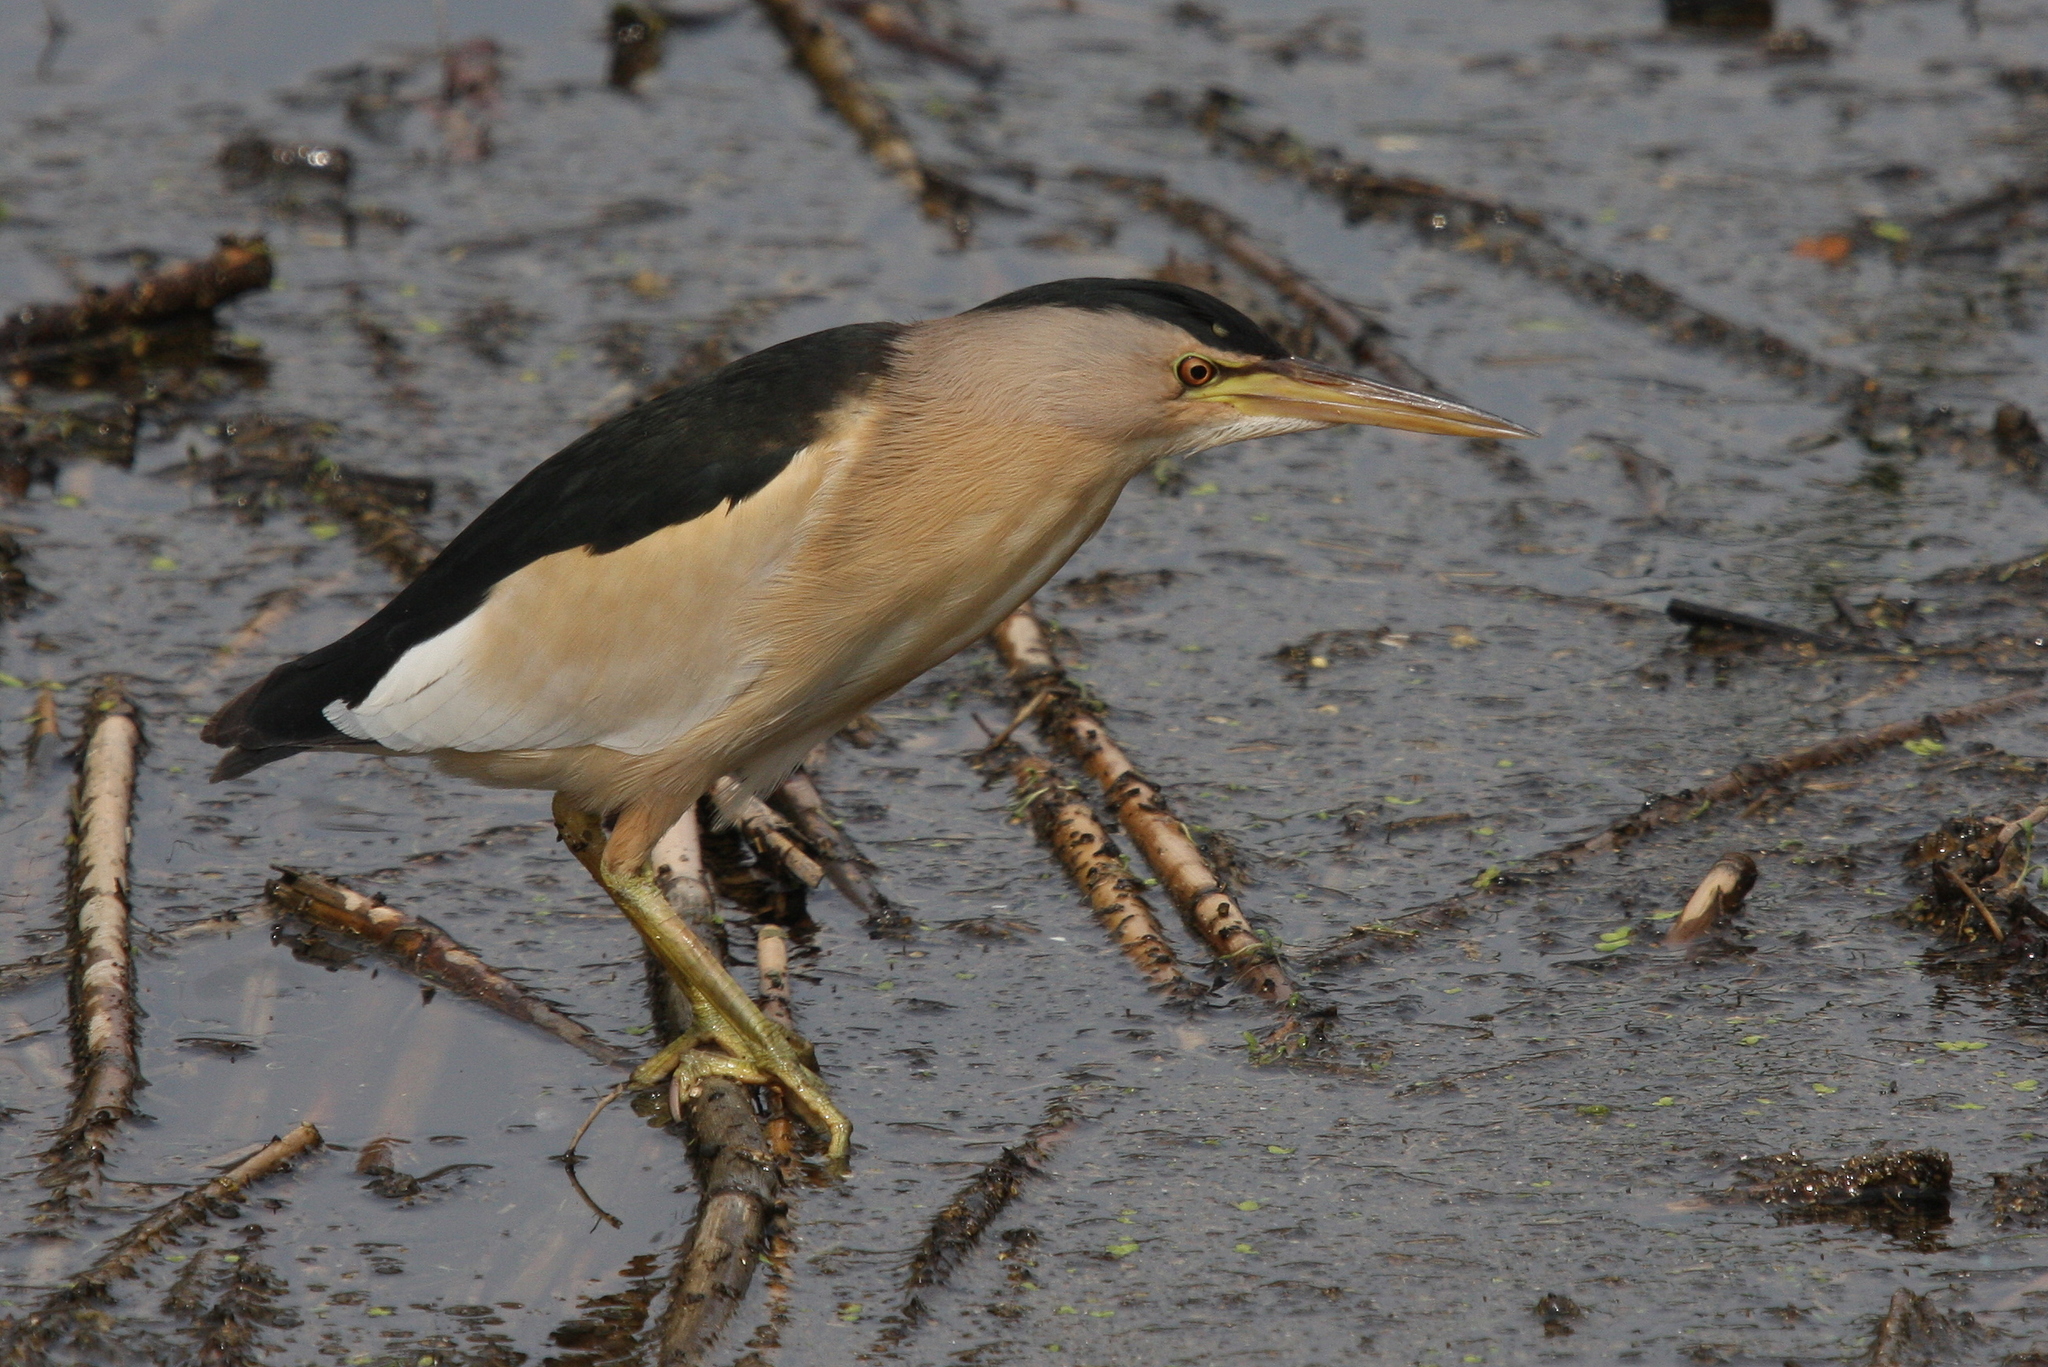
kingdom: Animalia
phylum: Chordata
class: Aves
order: Pelecaniformes
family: Ardeidae
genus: Ixobrychus
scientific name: Ixobrychus minutus
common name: Little bittern
